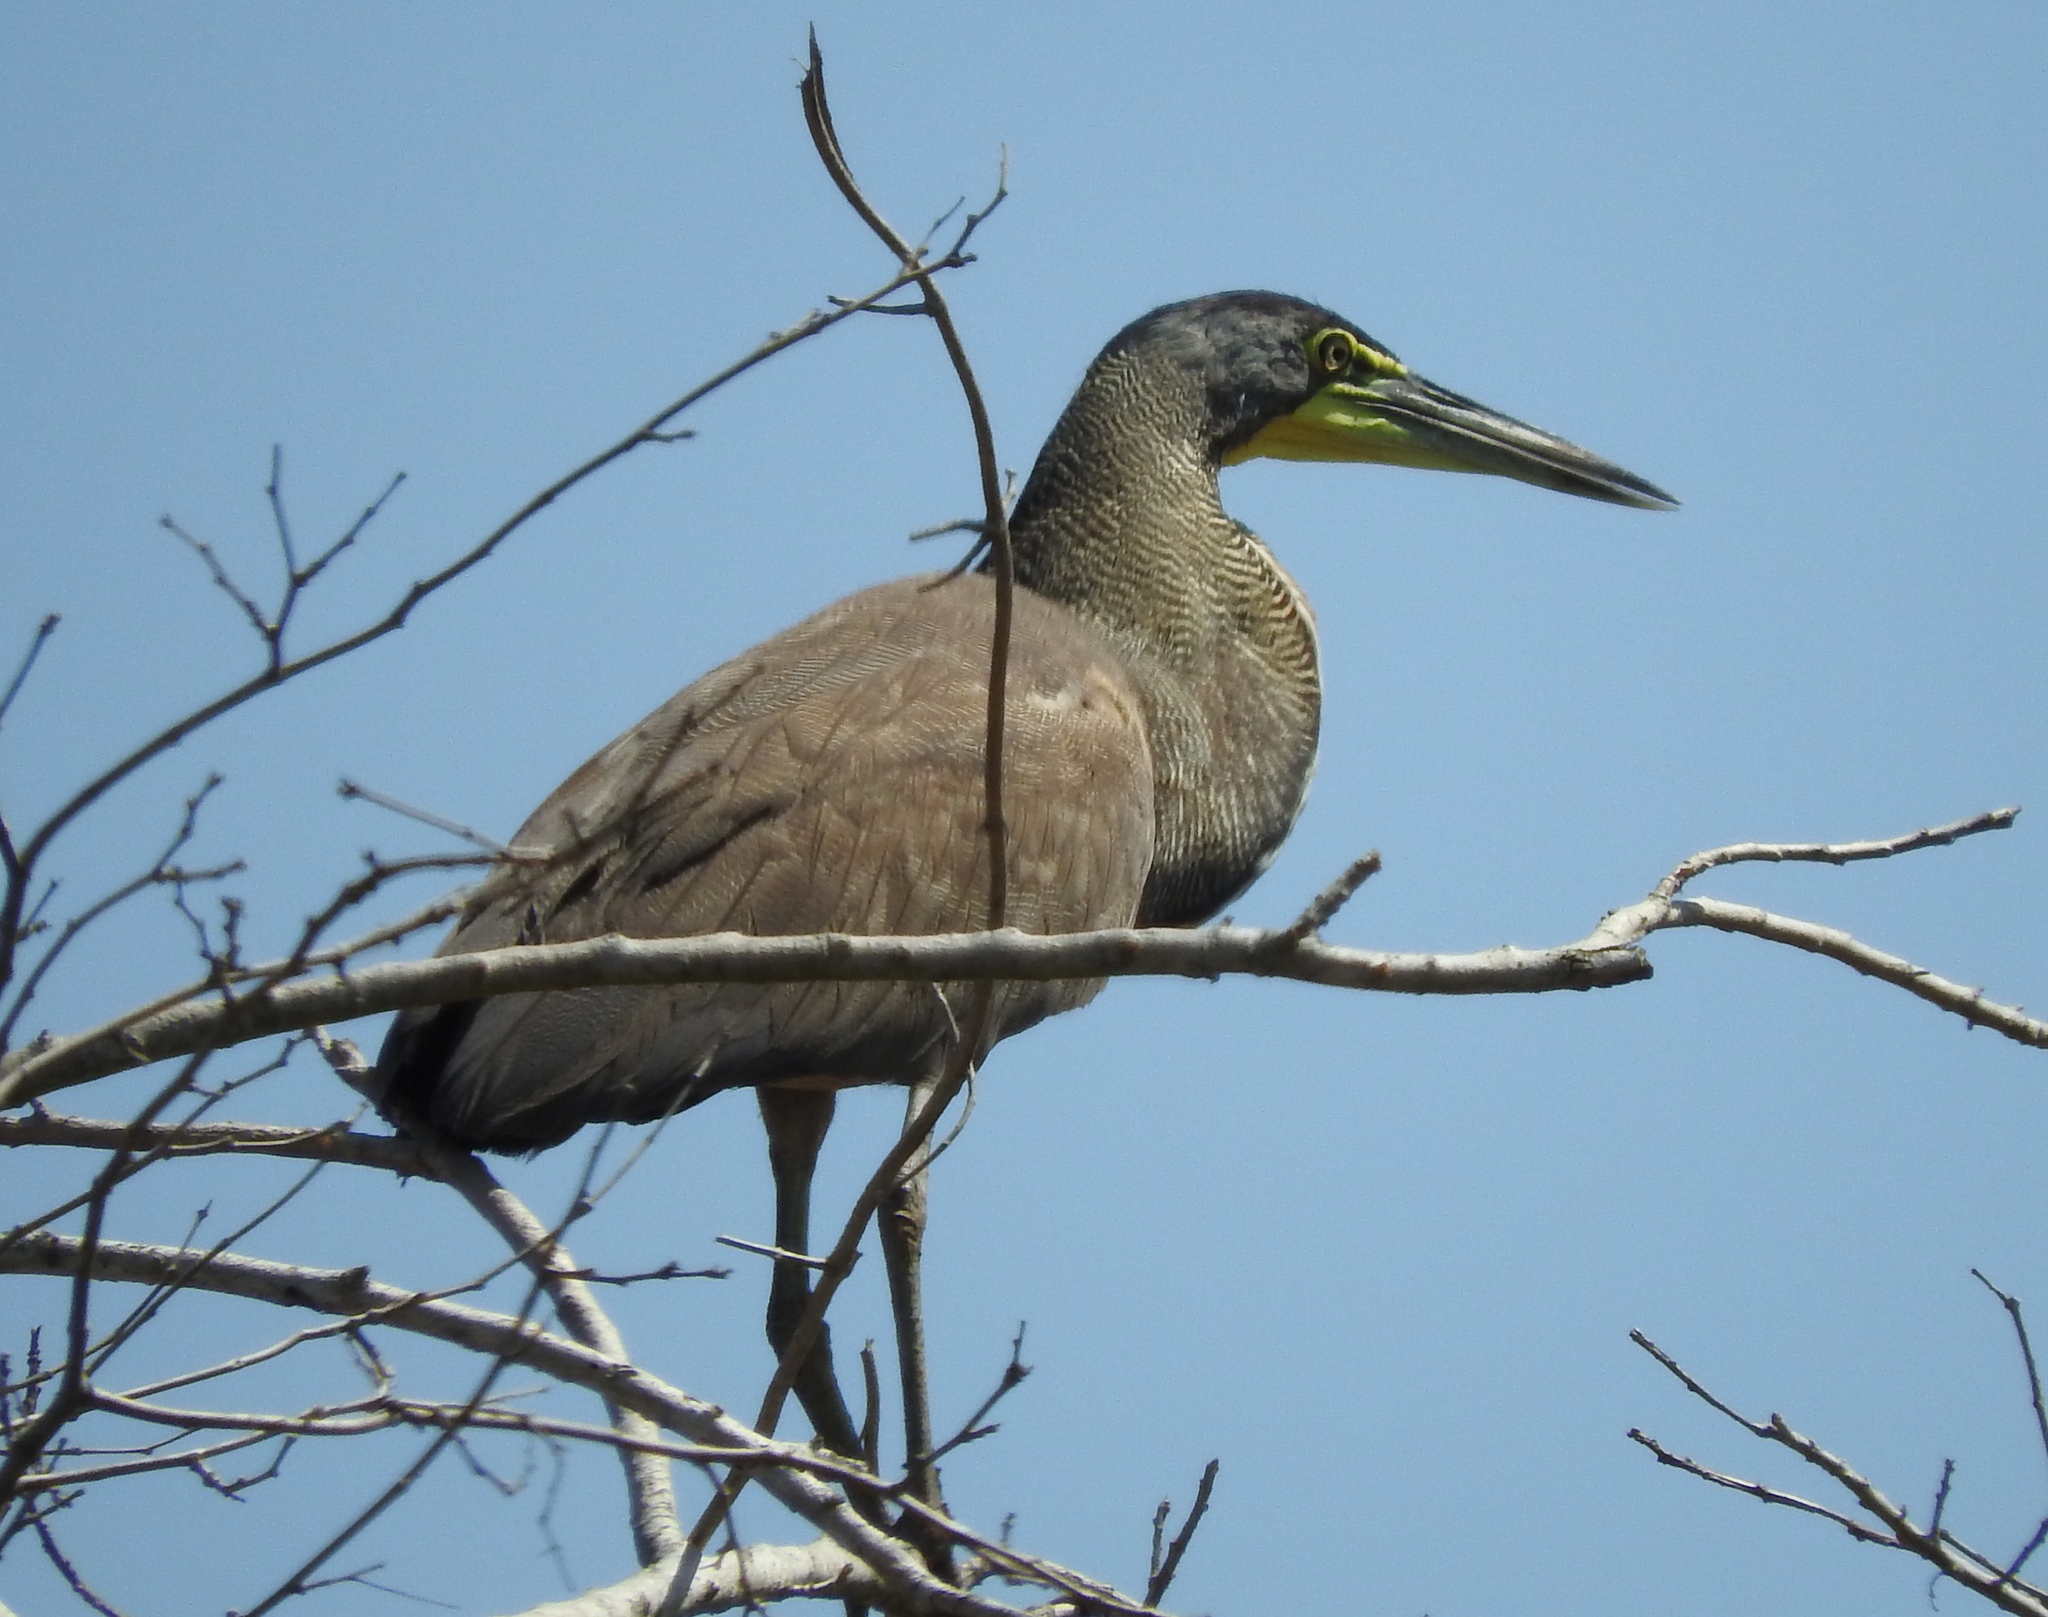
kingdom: Animalia
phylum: Chordata
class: Aves
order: Pelecaniformes
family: Ardeidae
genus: Tigrisoma
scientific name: Tigrisoma mexicanum
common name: Bare-throated tiger-heron
